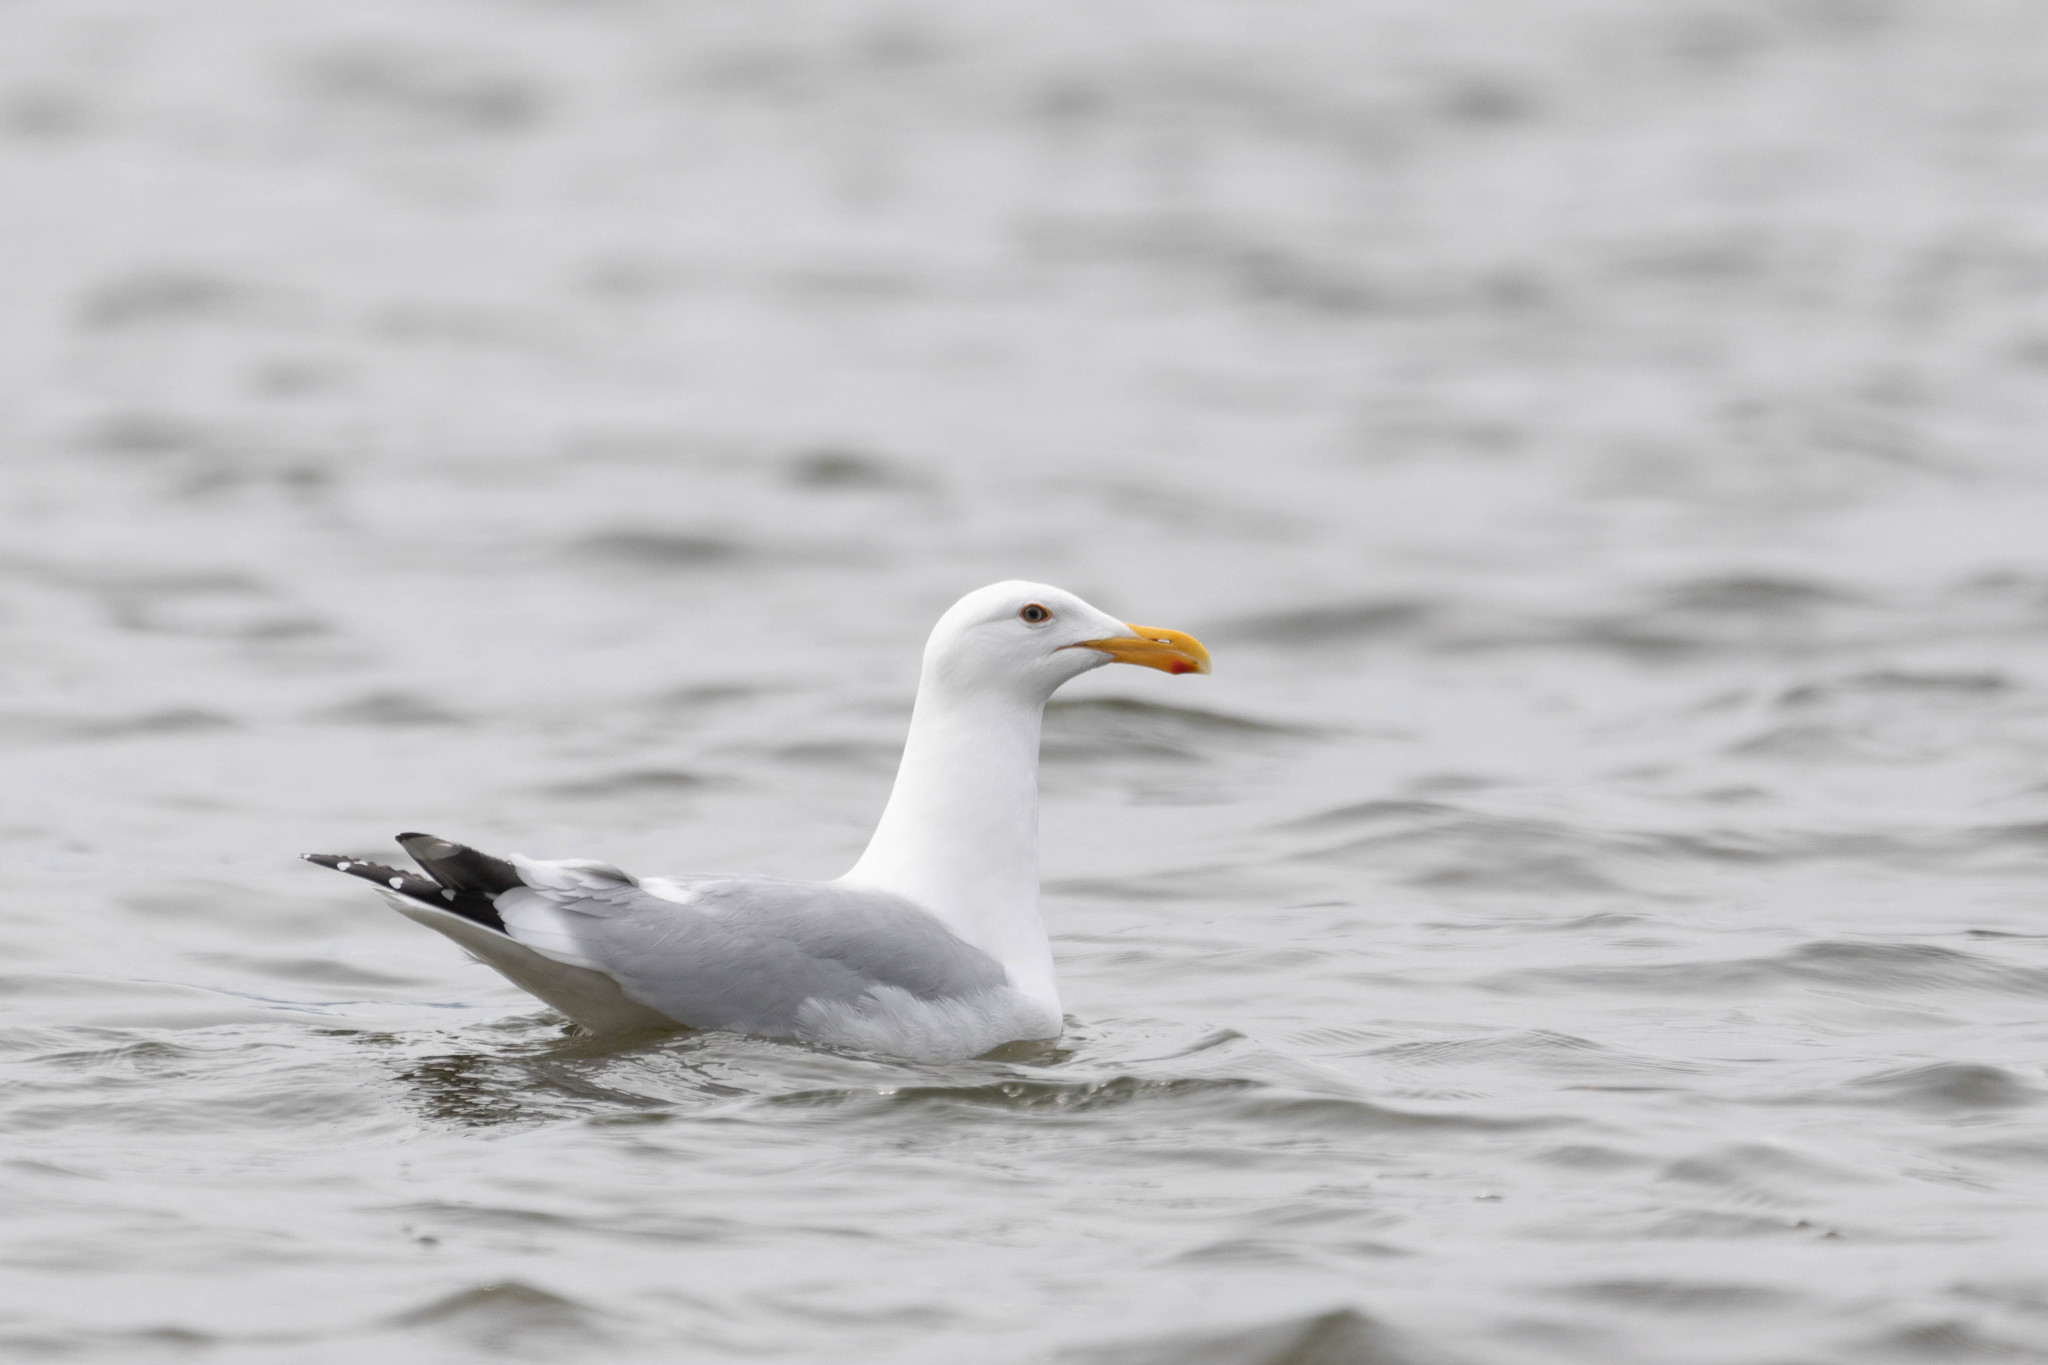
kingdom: Animalia
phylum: Chordata
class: Aves
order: Charadriiformes
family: Laridae
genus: Larus
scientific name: Larus californicus
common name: California gull
